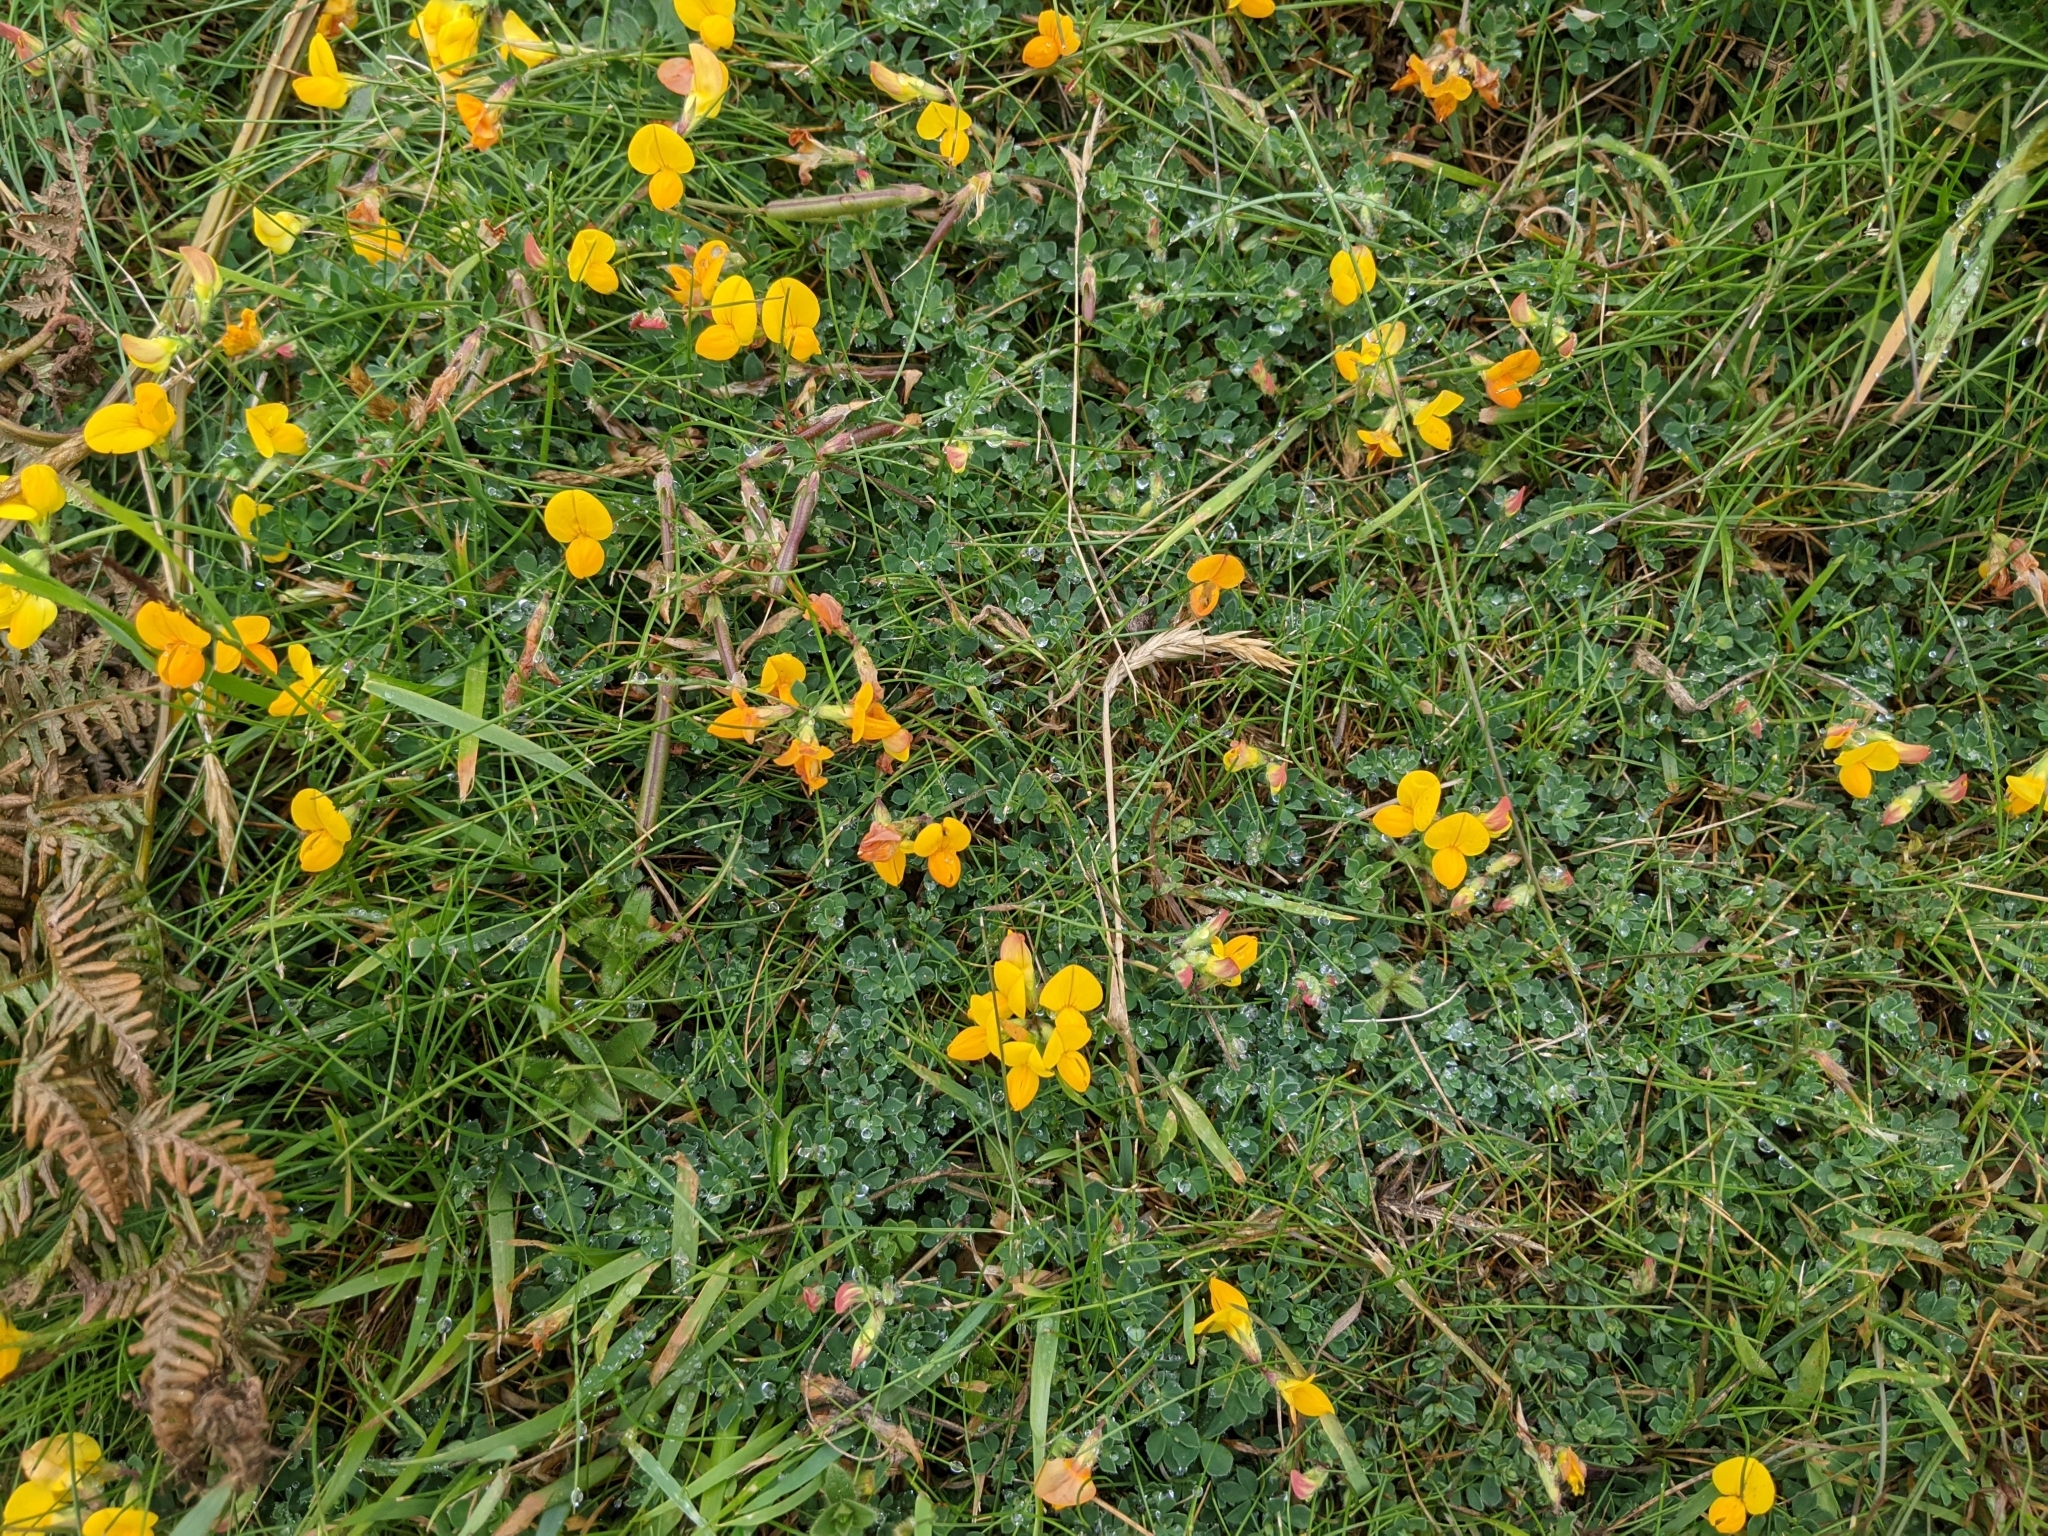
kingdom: Plantae
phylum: Tracheophyta
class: Magnoliopsida
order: Fabales
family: Fabaceae
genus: Lotus
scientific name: Lotus corniculatus
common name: Common bird's-foot-trefoil
